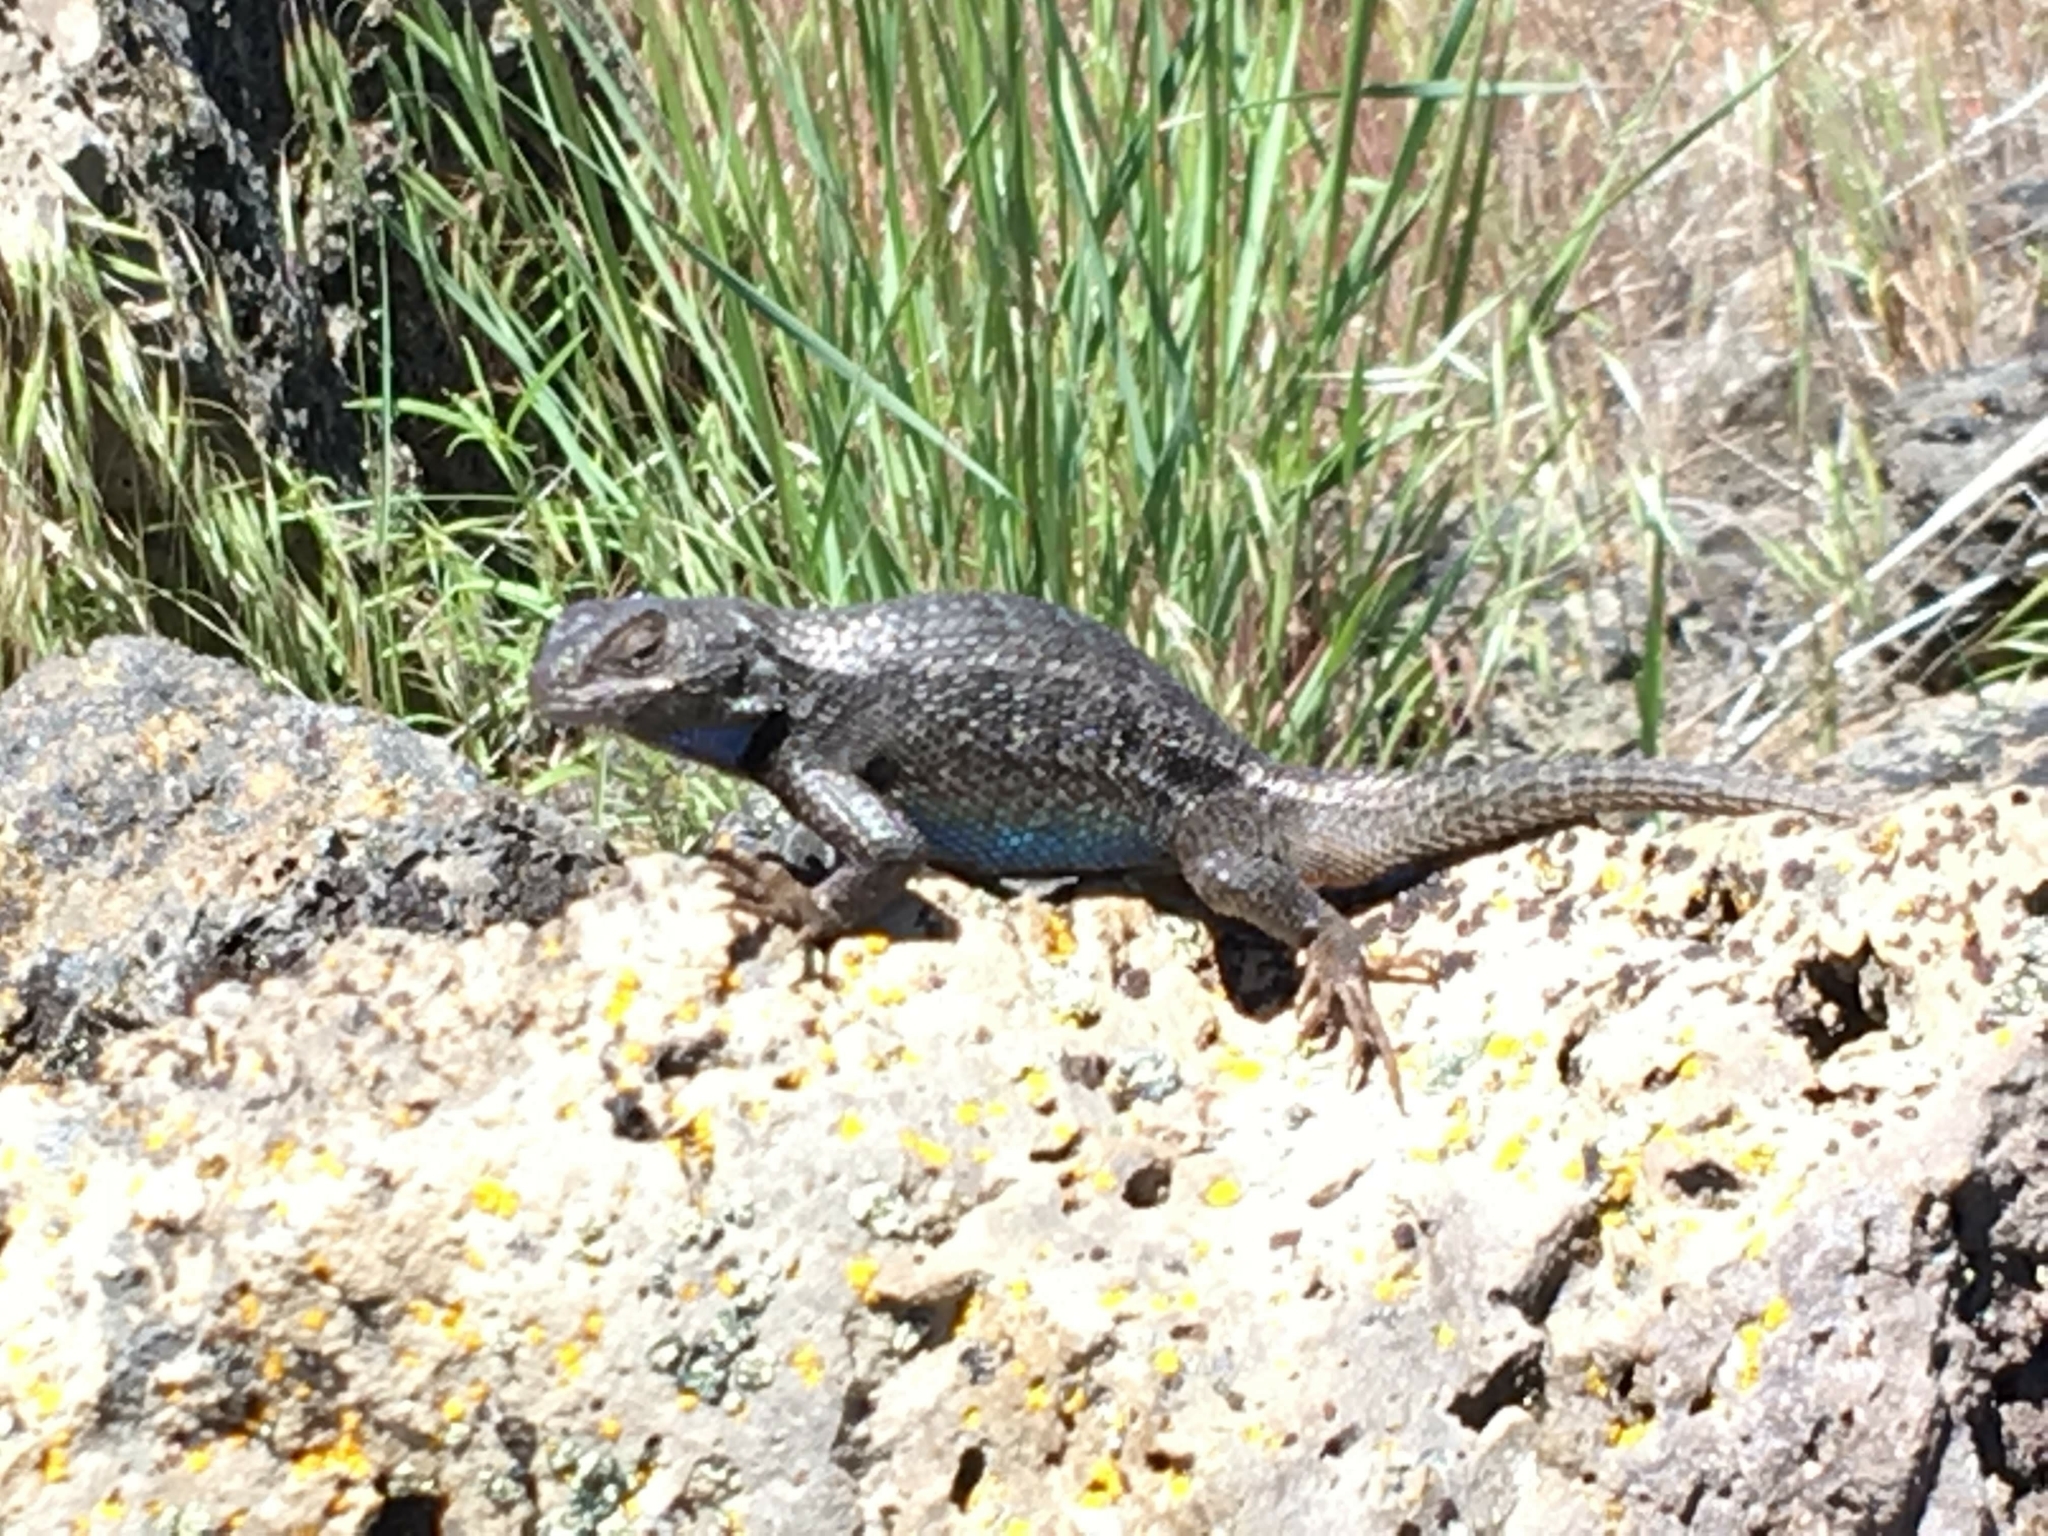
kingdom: Animalia
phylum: Chordata
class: Squamata
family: Phrynosomatidae
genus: Sceloporus
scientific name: Sceloporus occidentalis
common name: Western fence lizard
